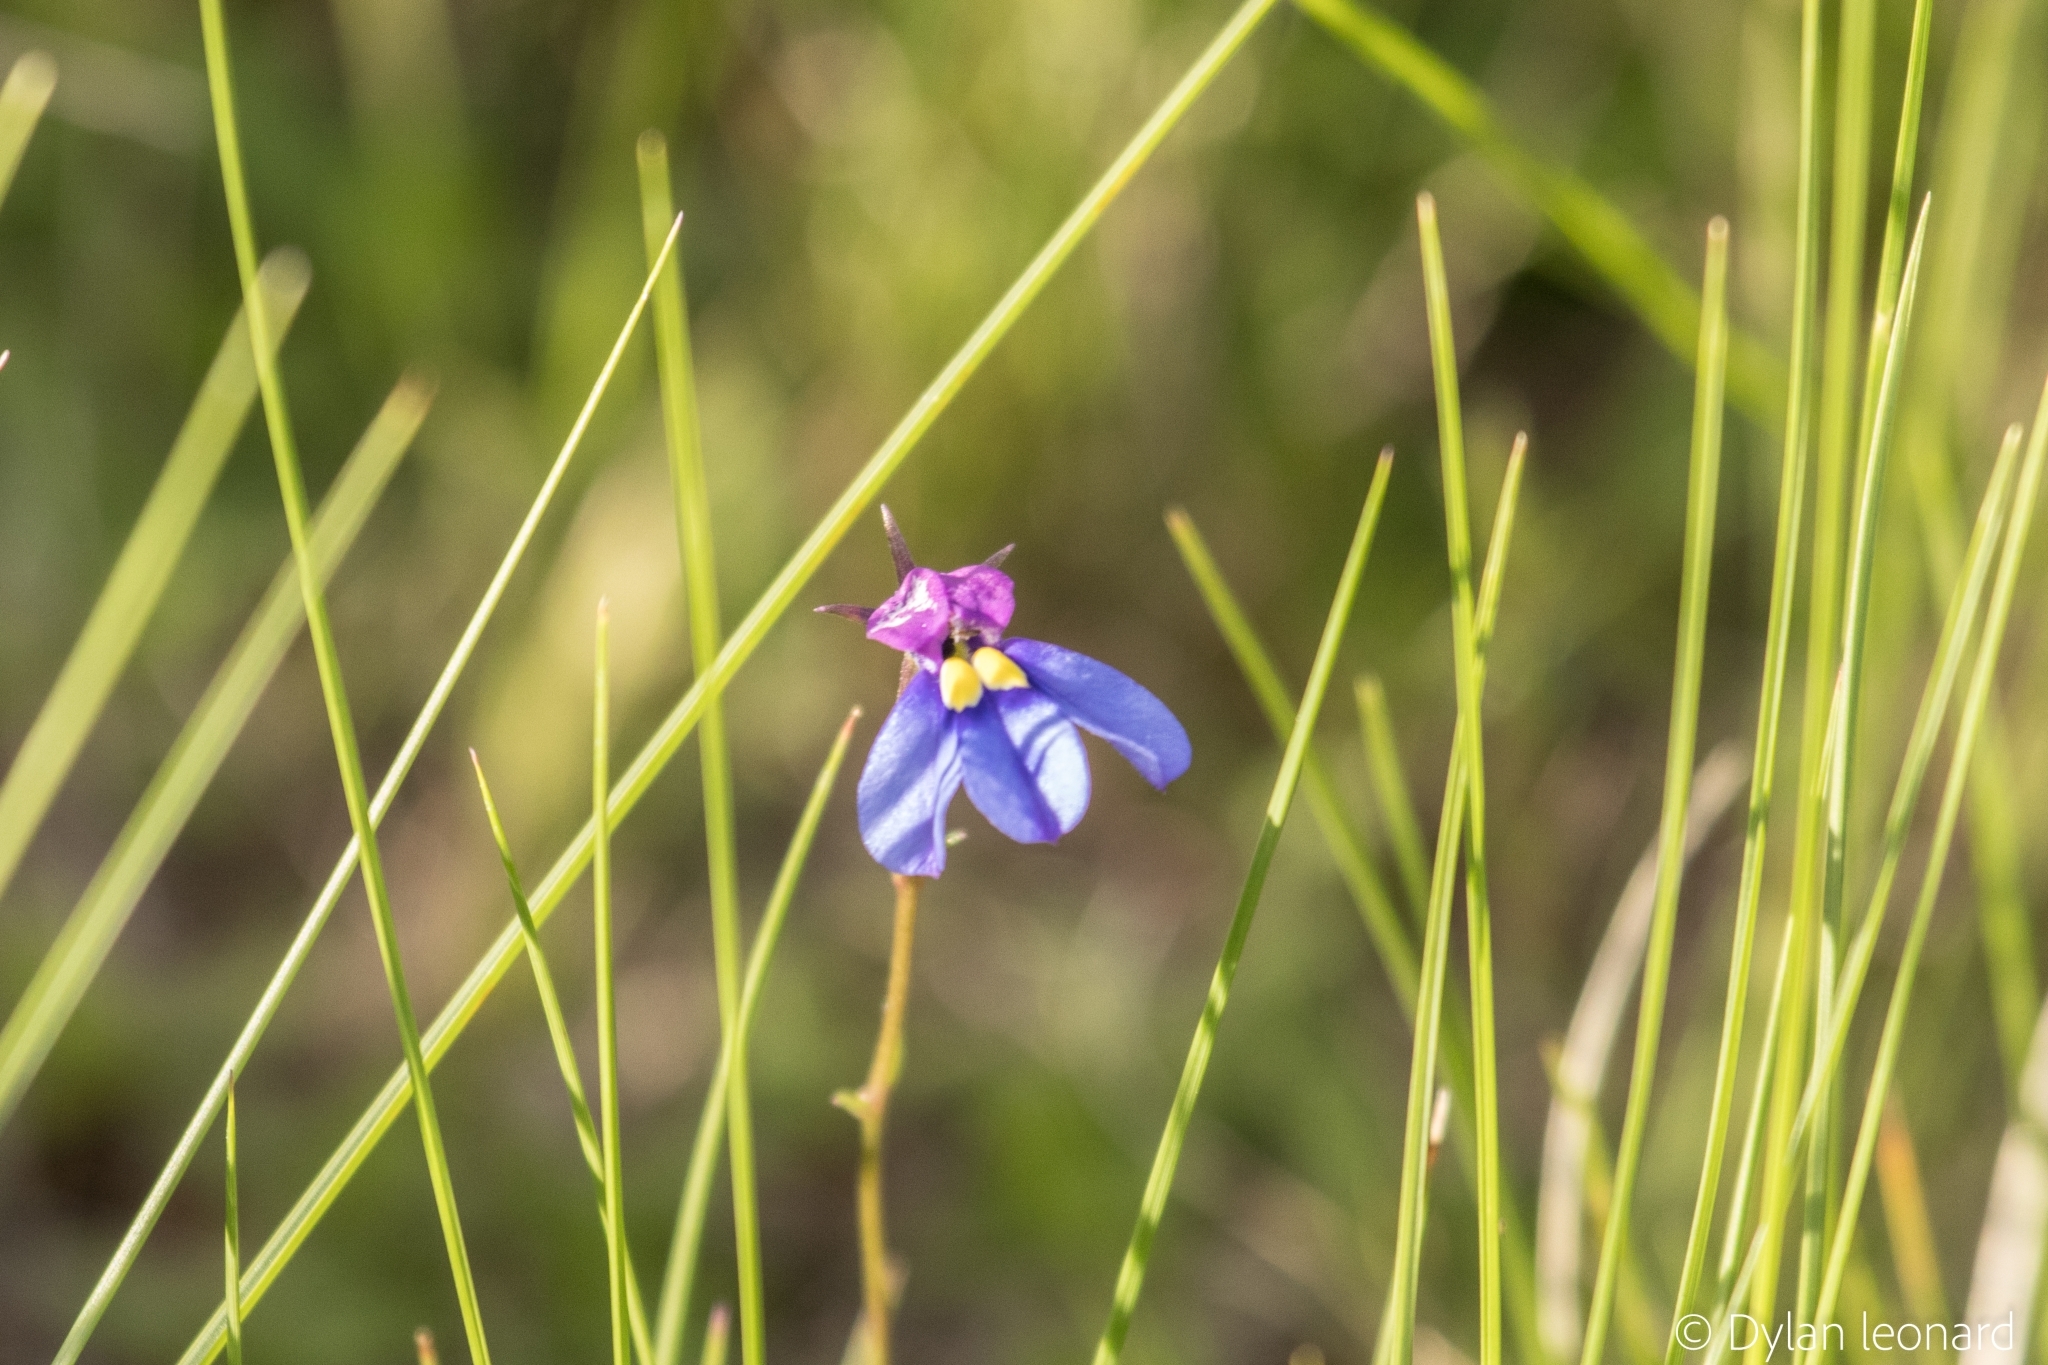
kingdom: Plantae
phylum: Tracheophyta
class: Magnoliopsida
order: Asterales
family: Campanulaceae
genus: Monopsis
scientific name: Monopsis decipiens
